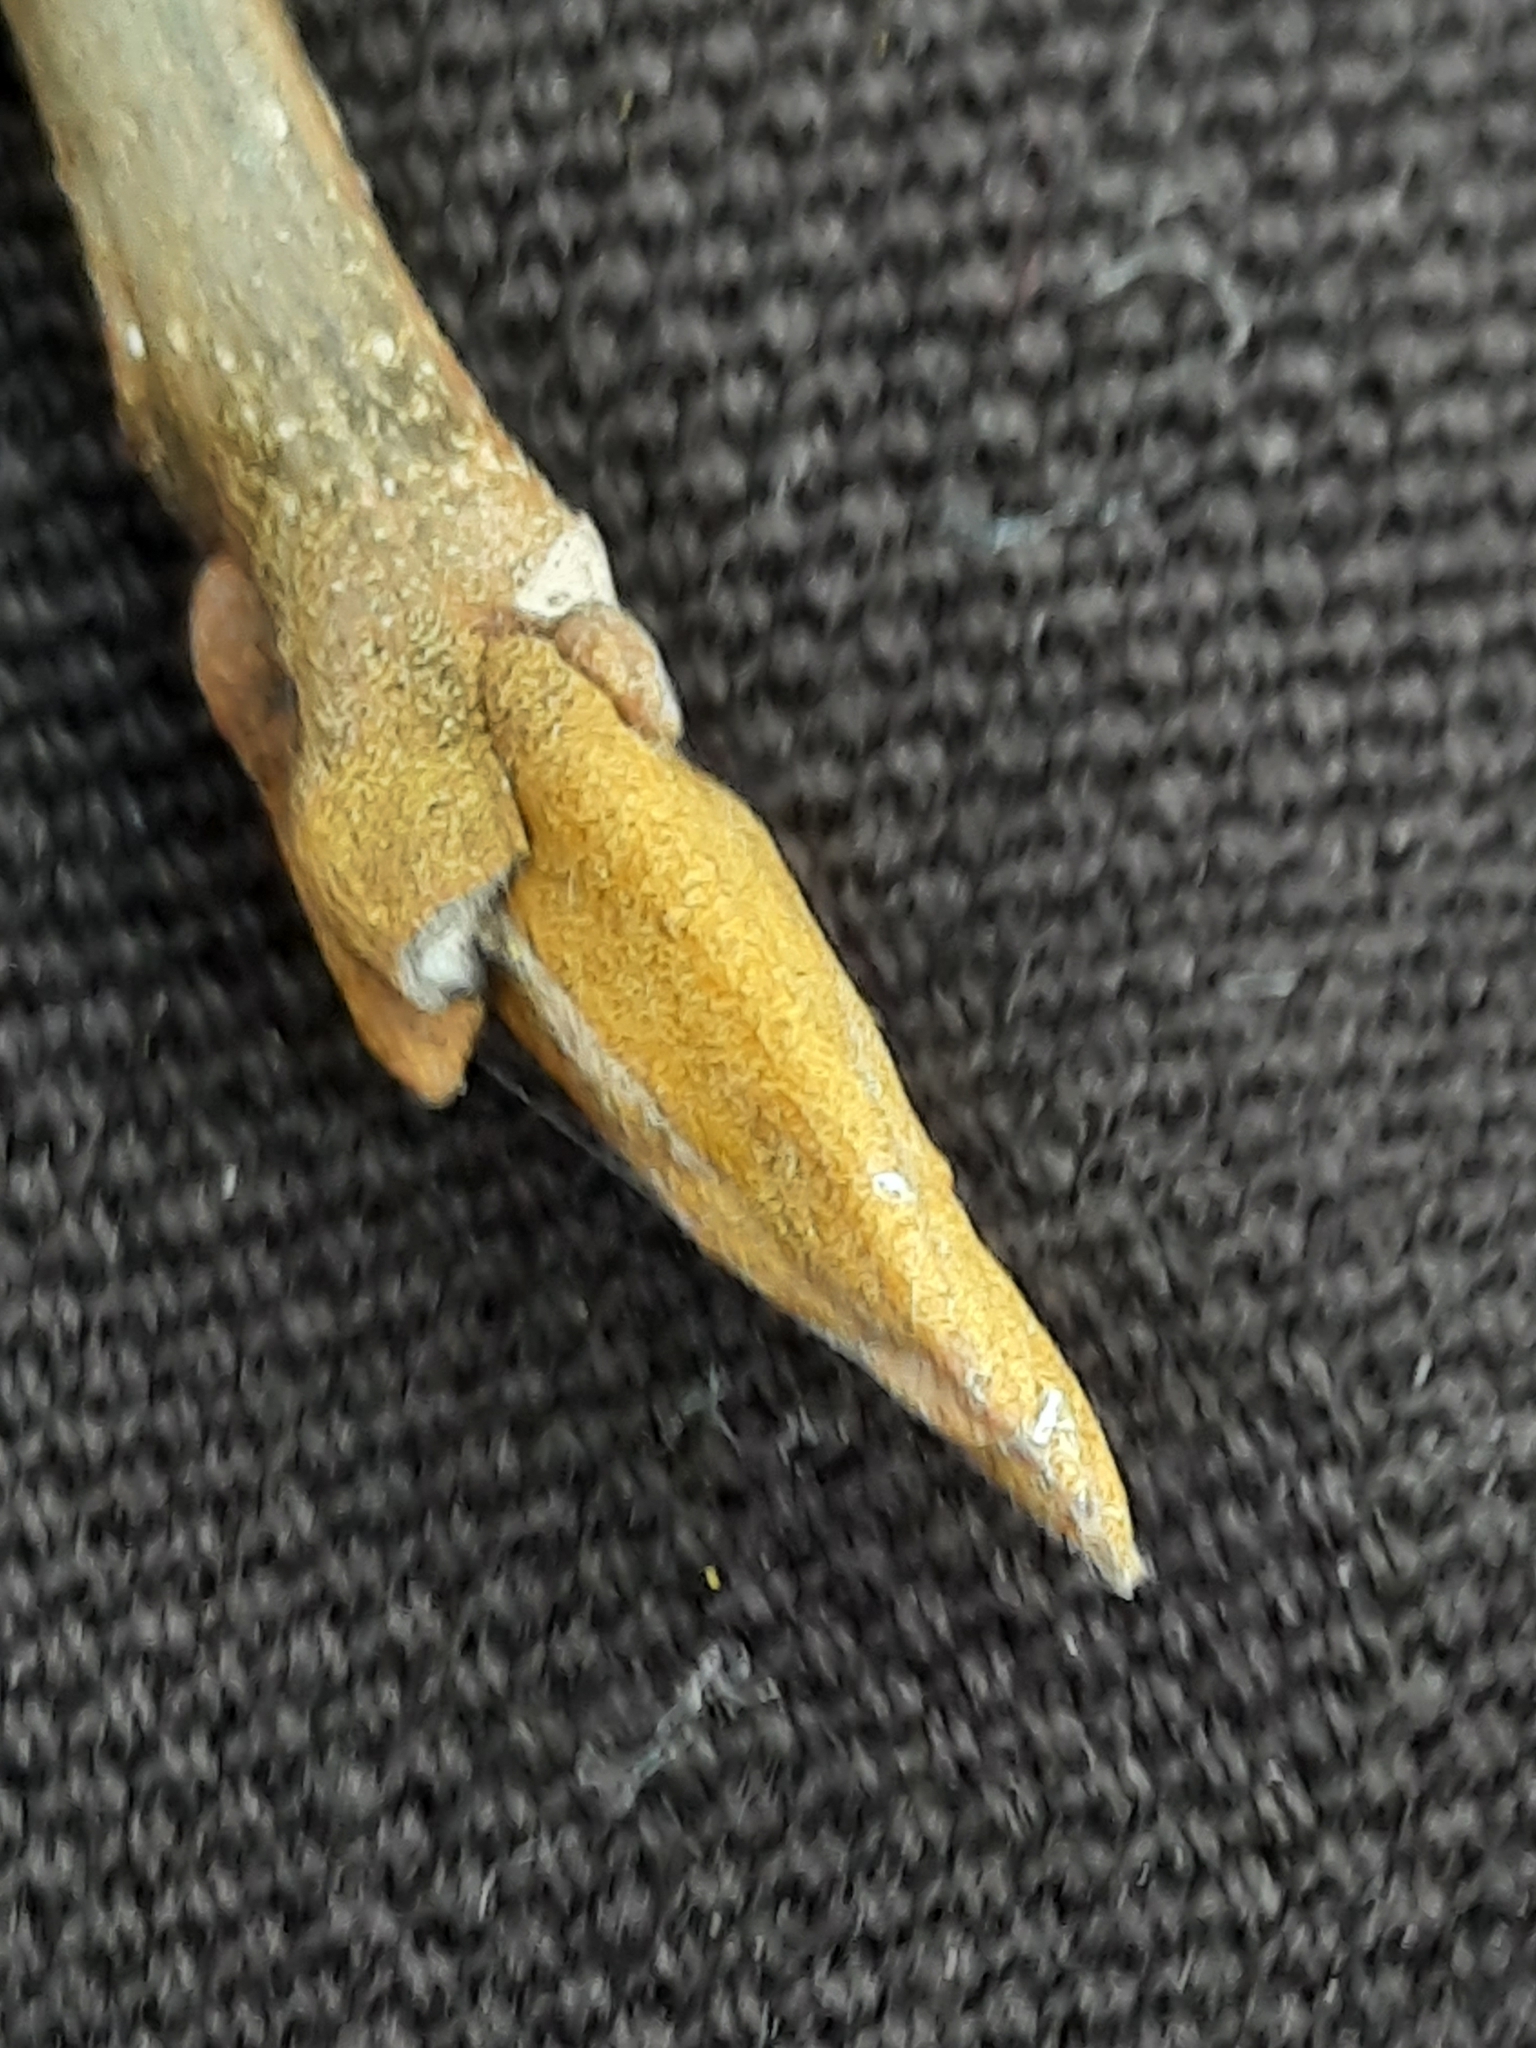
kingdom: Plantae
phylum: Tracheophyta
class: Magnoliopsida
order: Fagales
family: Juglandaceae
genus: Carya
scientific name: Carya cordiformis
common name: Bitternut hickory
